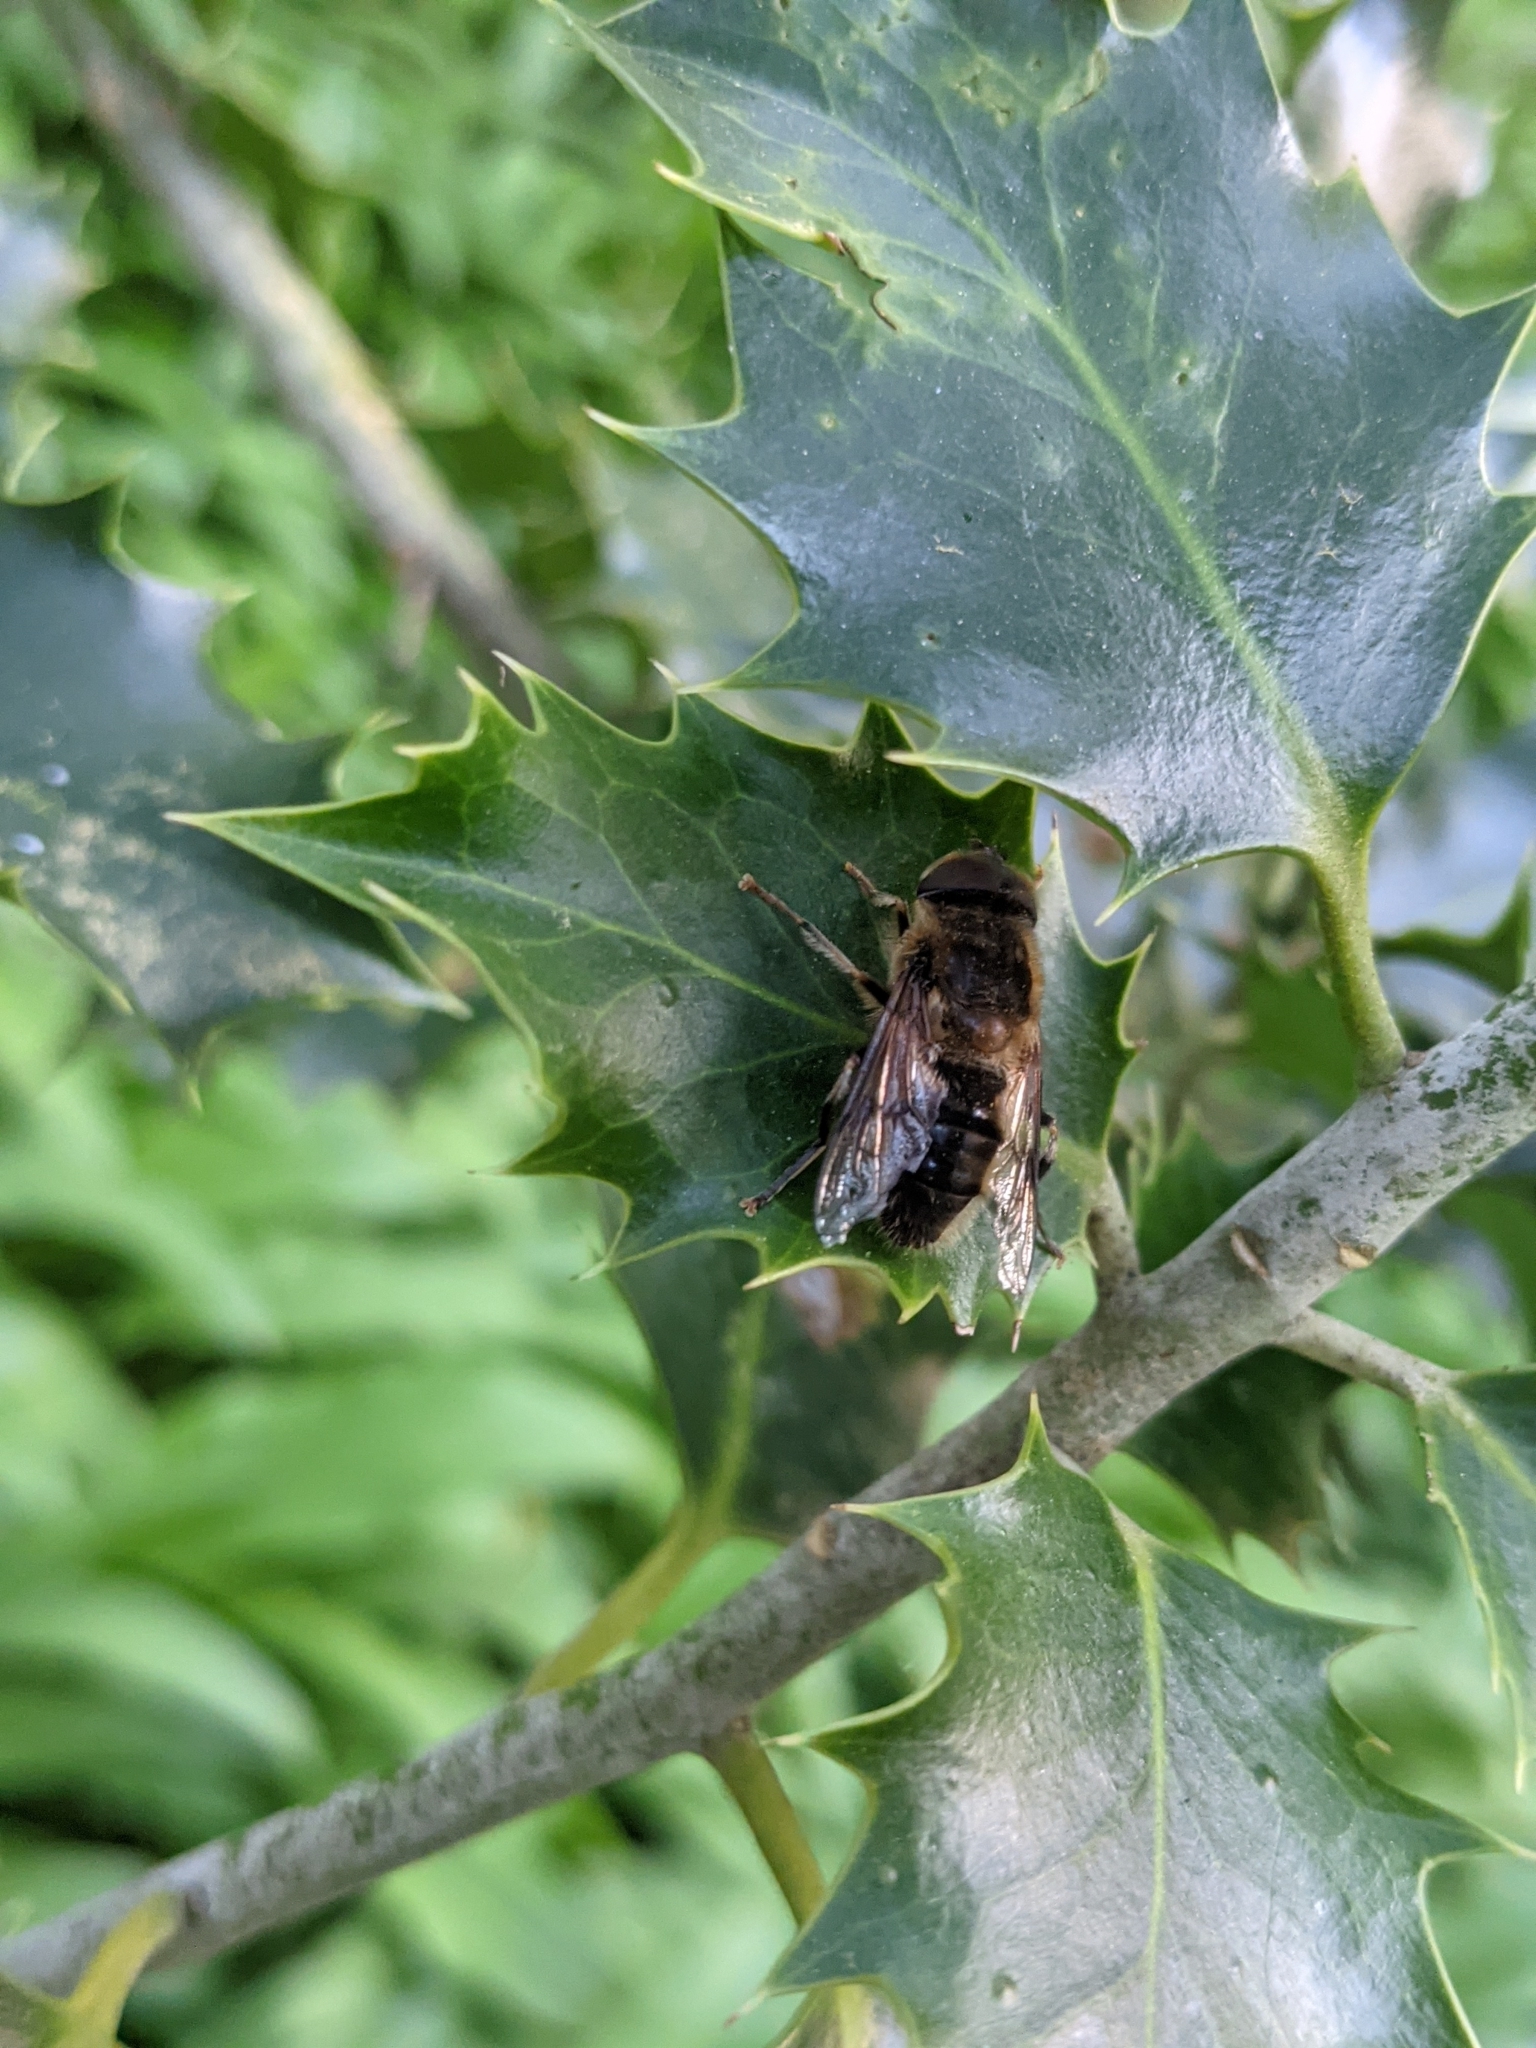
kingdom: Animalia
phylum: Arthropoda
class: Insecta
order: Diptera
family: Syrphidae
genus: Eristalis
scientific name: Eristalis pertinax
